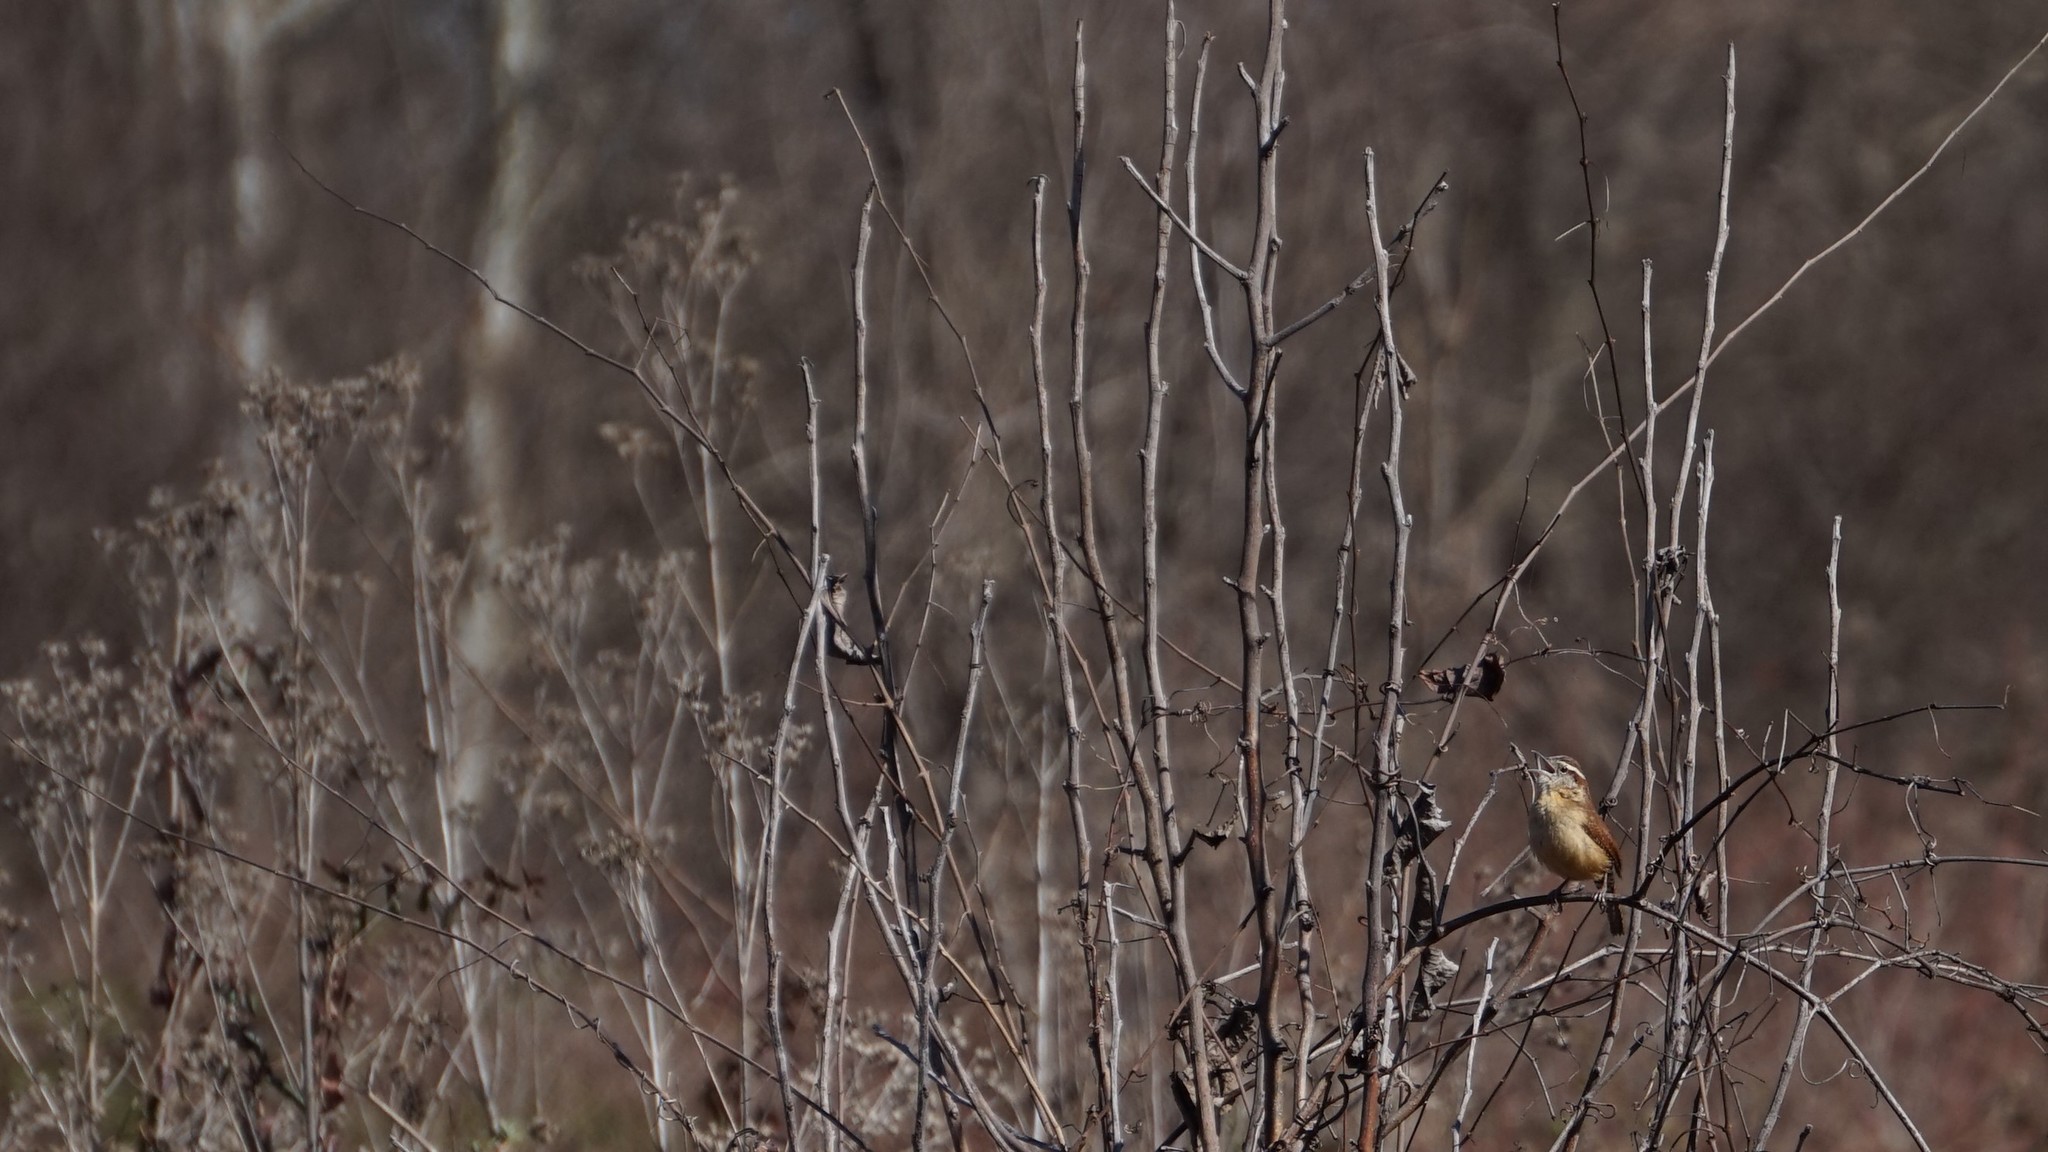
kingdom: Animalia
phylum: Chordata
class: Aves
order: Passeriformes
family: Troglodytidae
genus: Thryothorus
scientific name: Thryothorus ludovicianus
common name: Carolina wren
